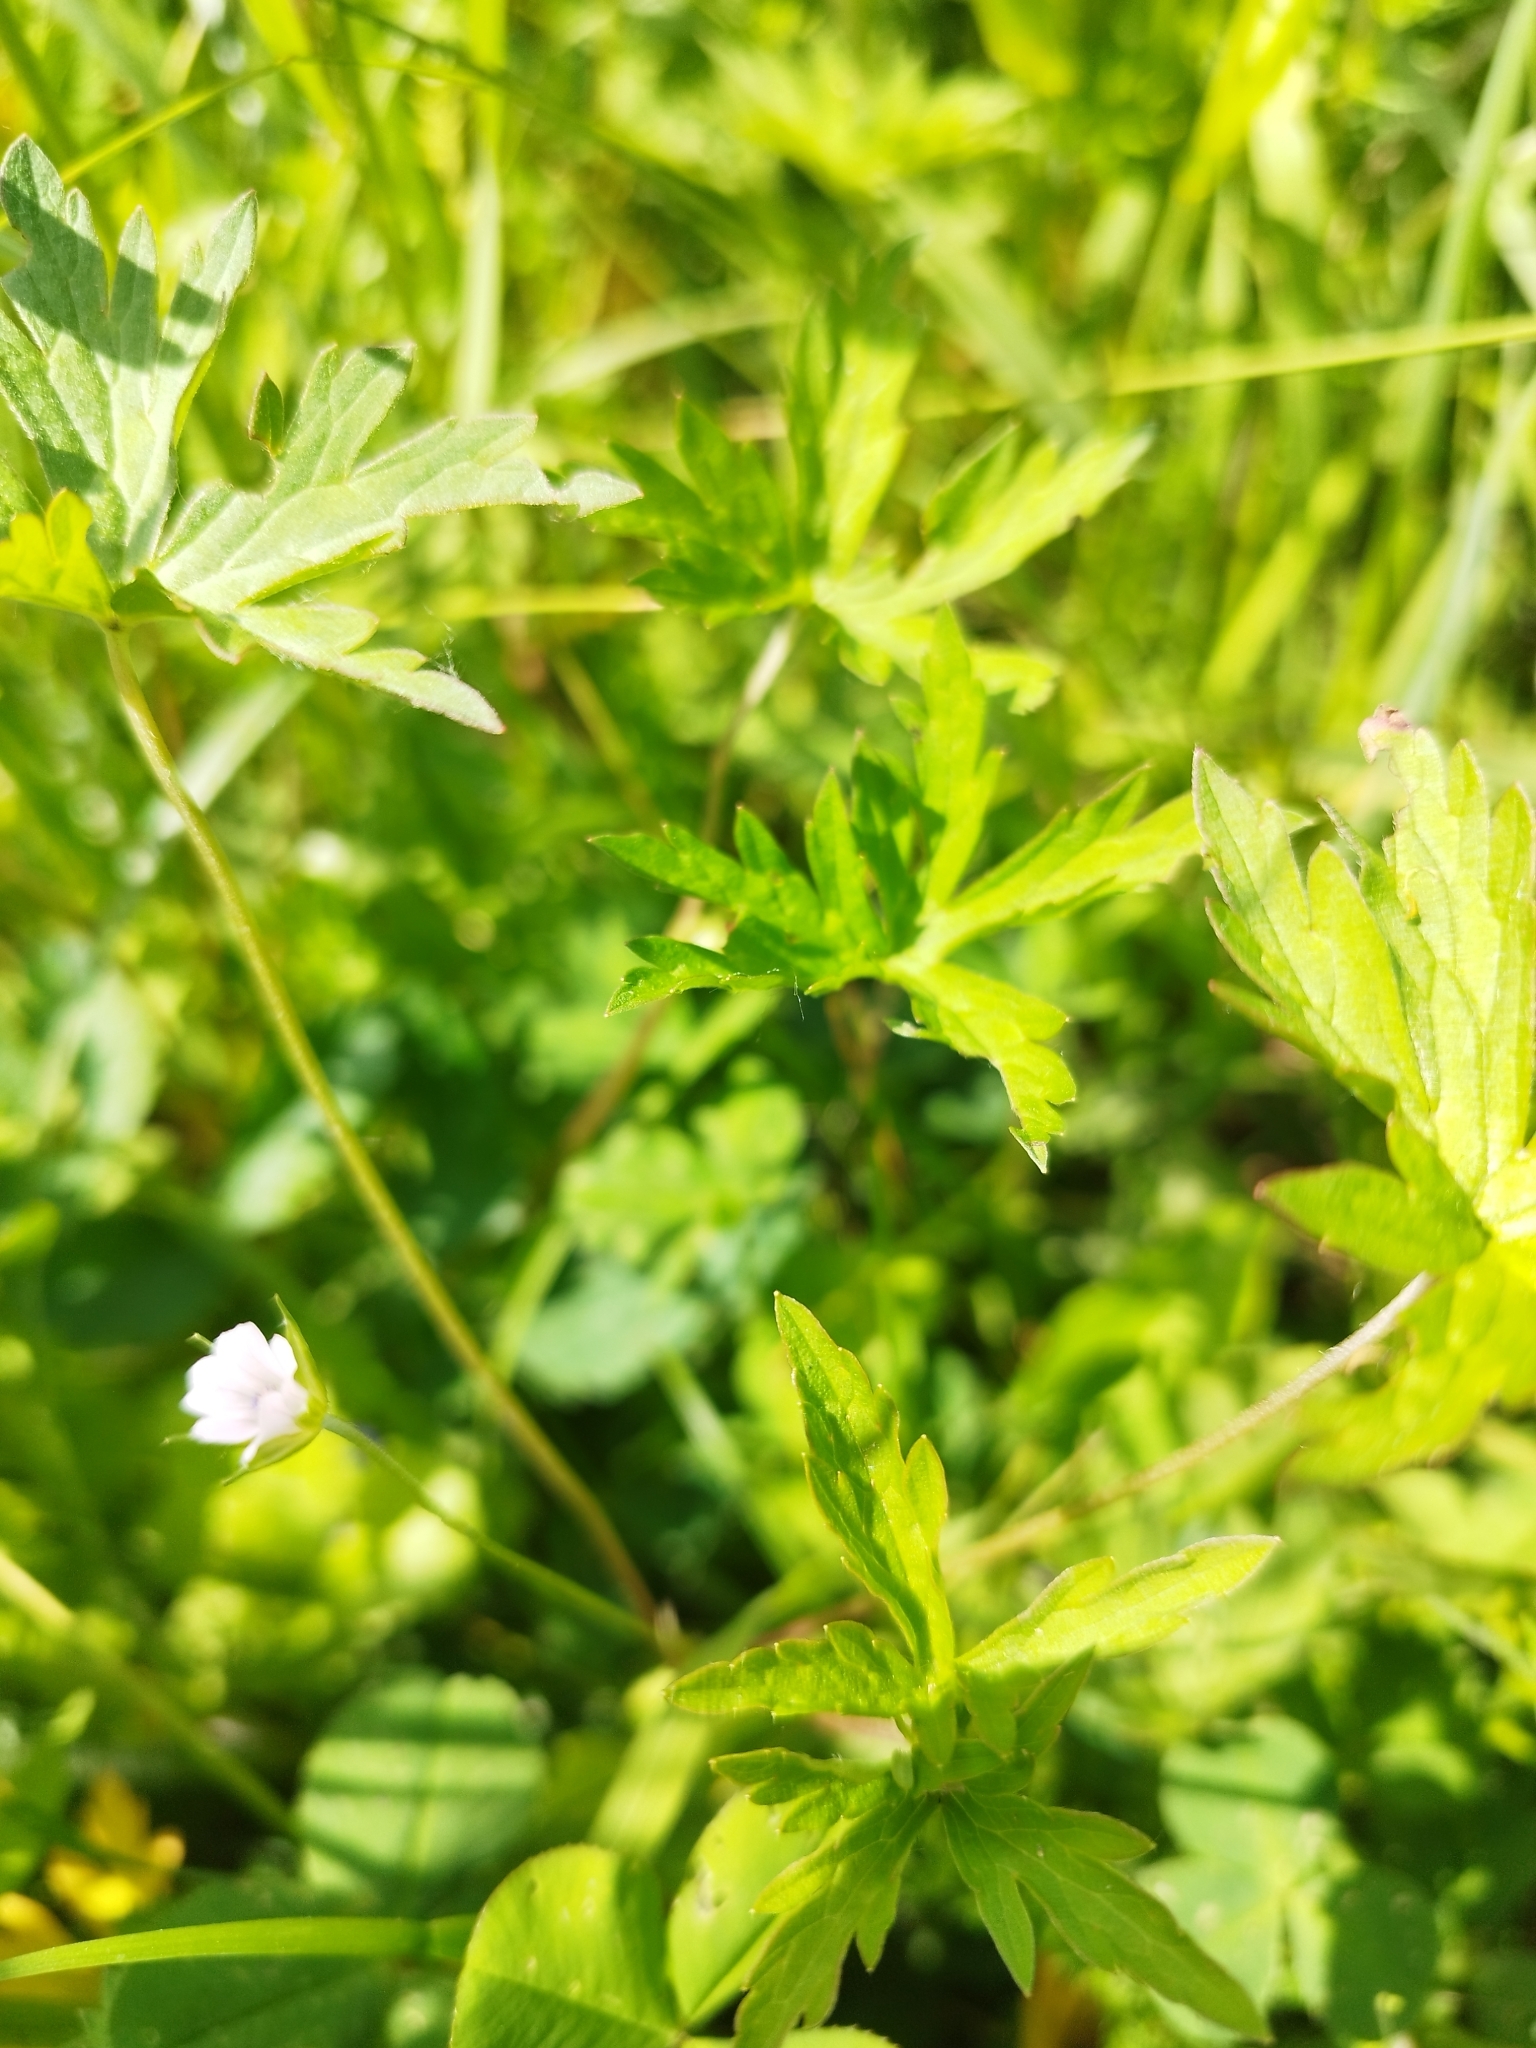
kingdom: Plantae
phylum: Tracheophyta
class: Magnoliopsida
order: Geraniales
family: Geraniaceae
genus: Geranium
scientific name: Geranium sibiricum
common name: Siberian crane's-bill
